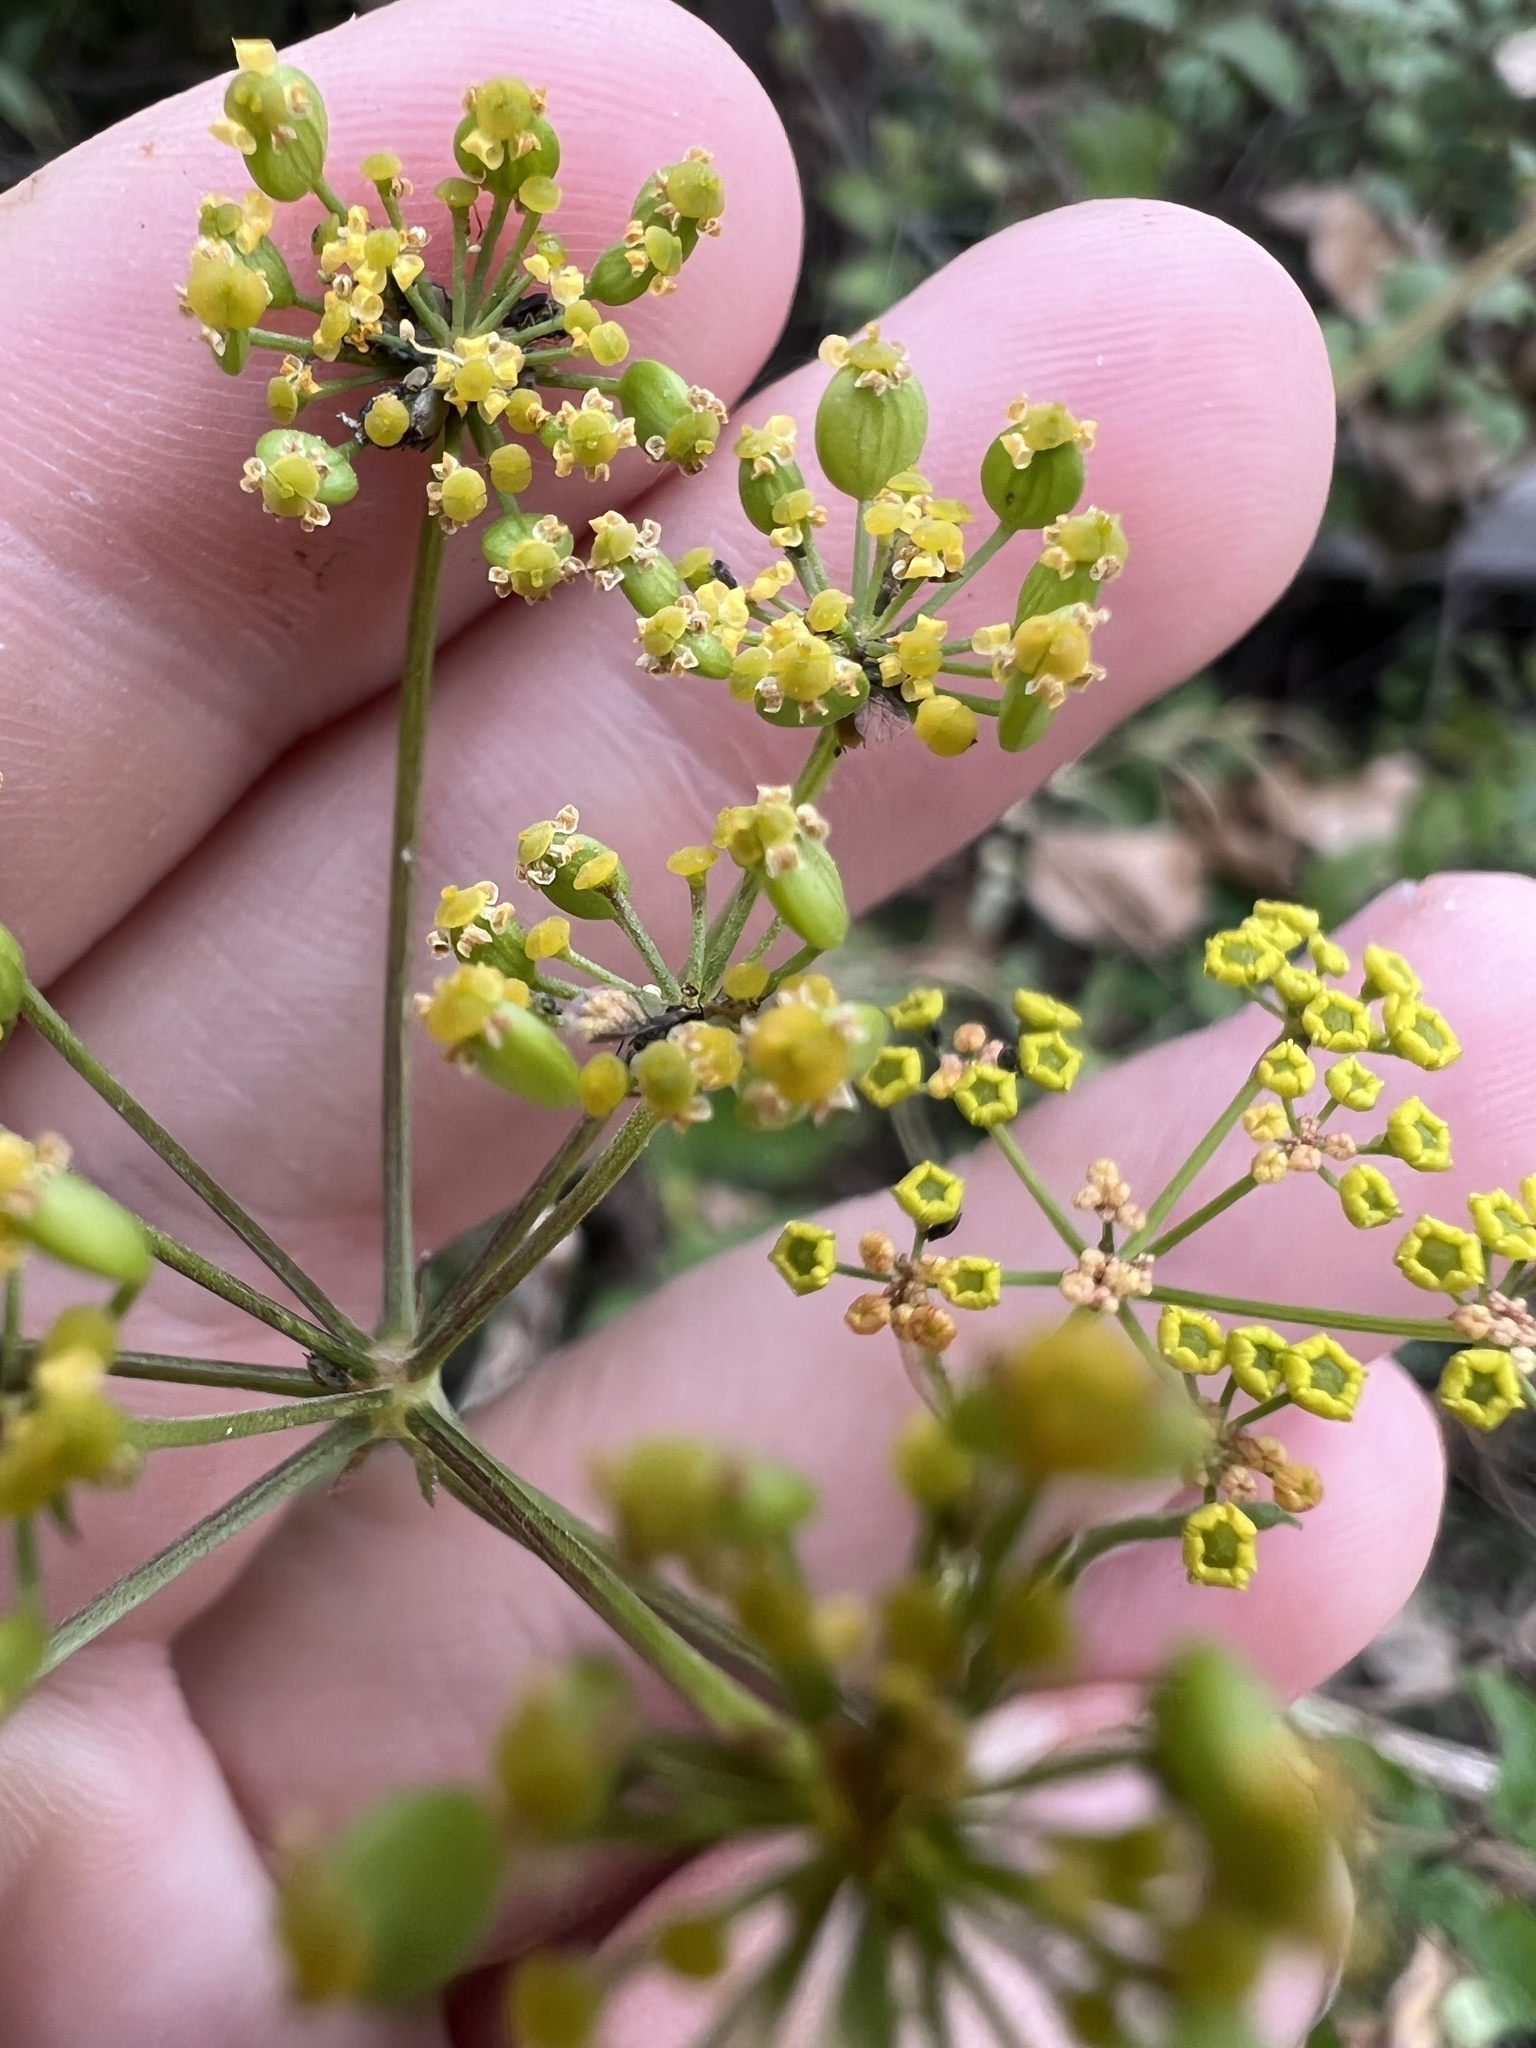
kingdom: Plantae
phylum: Tracheophyta
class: Magnoliopsida
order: Apiales
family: Apiaceae
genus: Pastinaca
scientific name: Pastinaca sativa
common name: Wild parsnip
